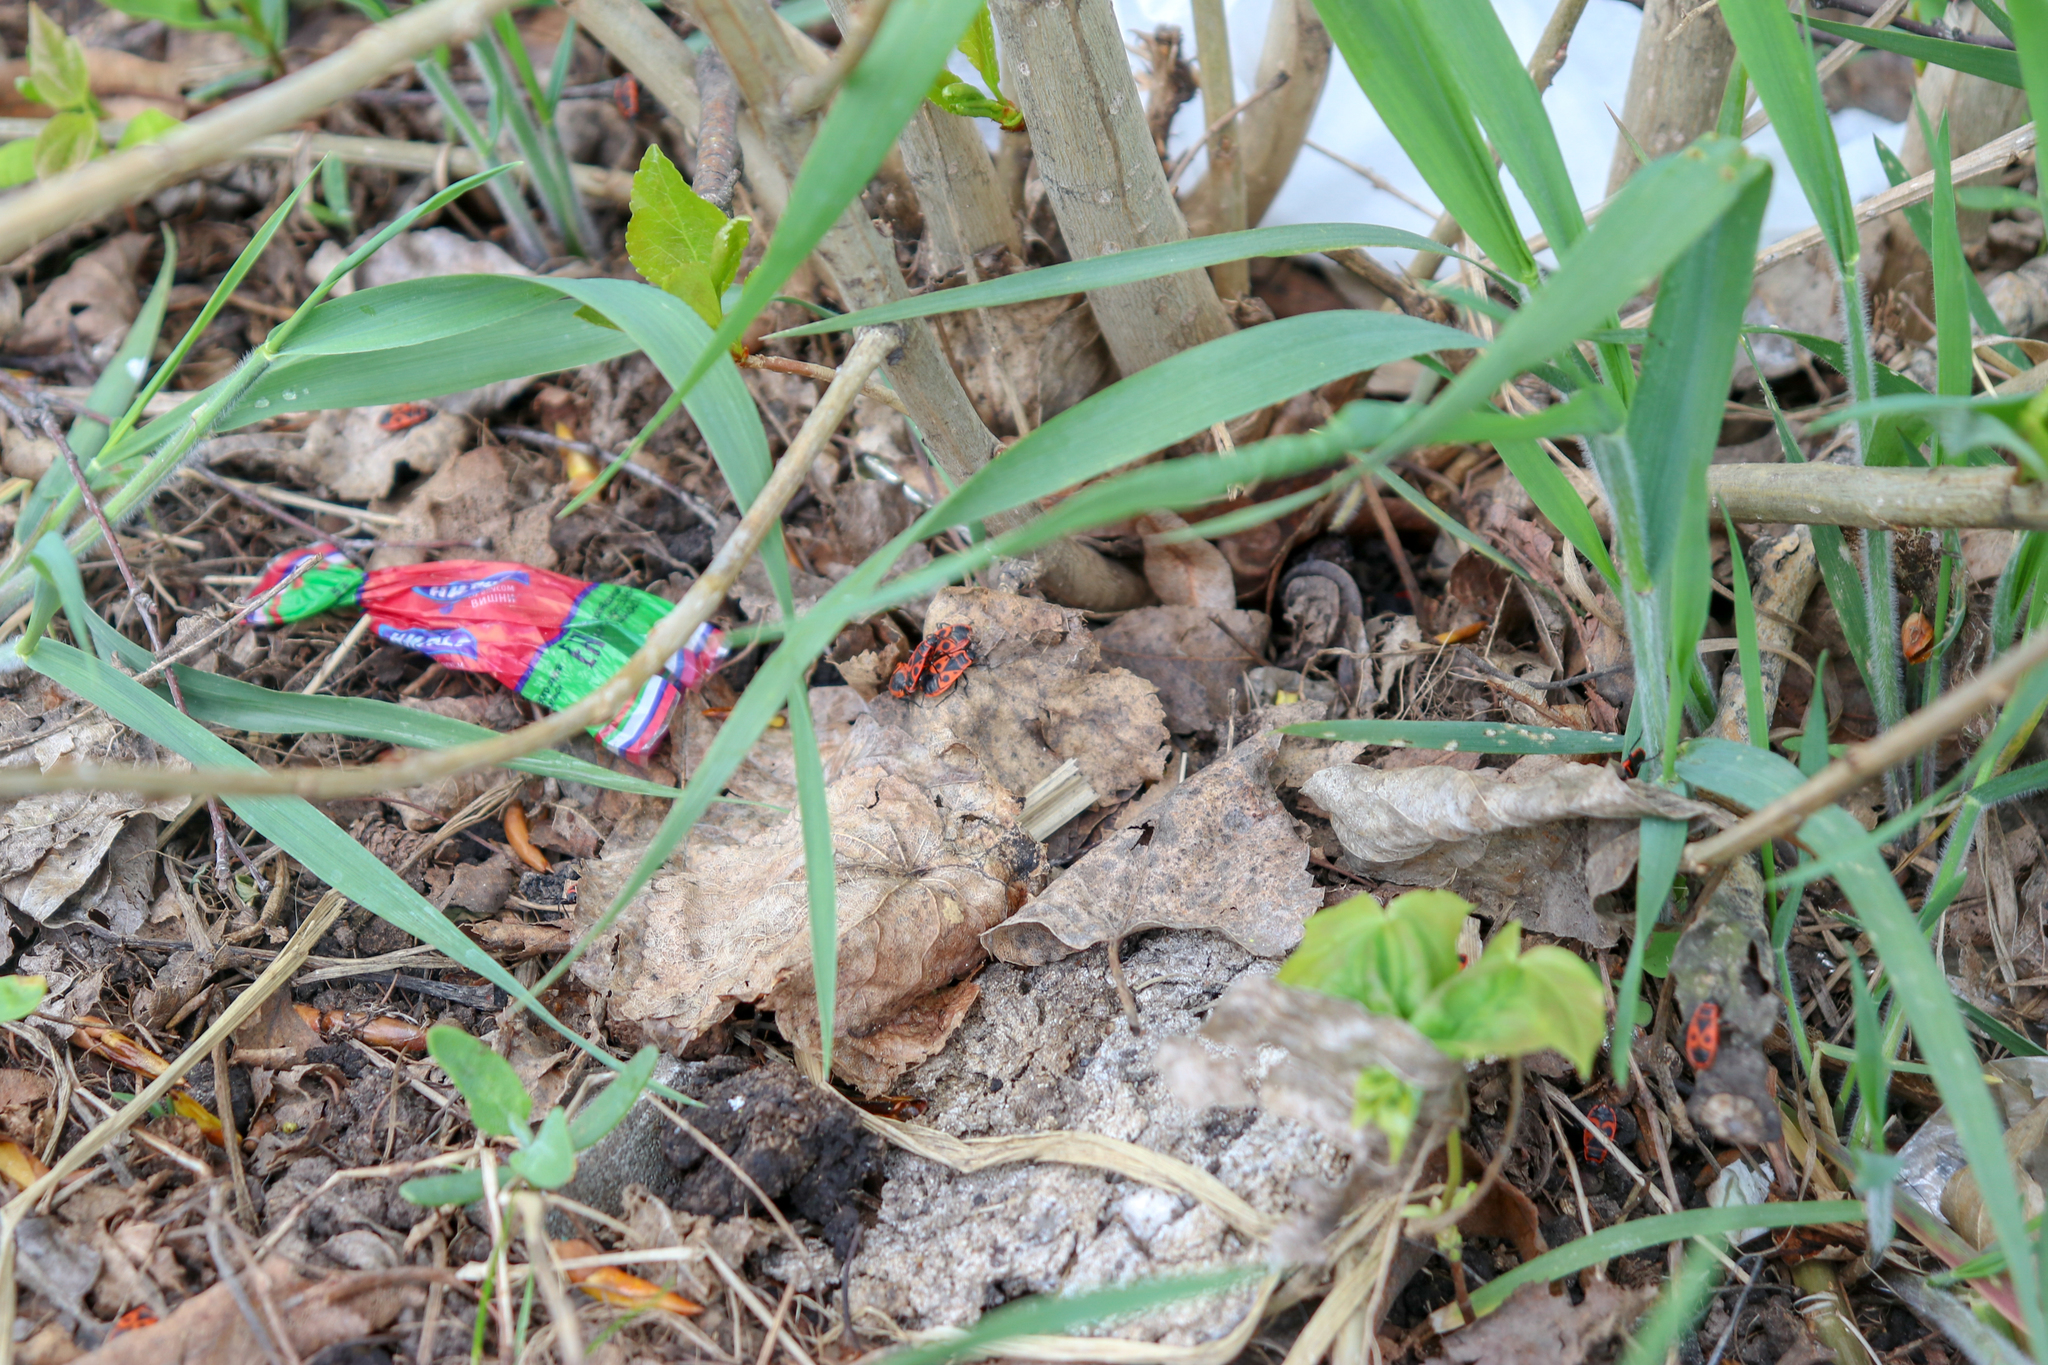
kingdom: Animalia
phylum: Arthropoda
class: Insecta
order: Hemiptera
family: Pyrrhocoridae
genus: Pyrrhocoris
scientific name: Pyrrhocoris apterus
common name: Firebug
